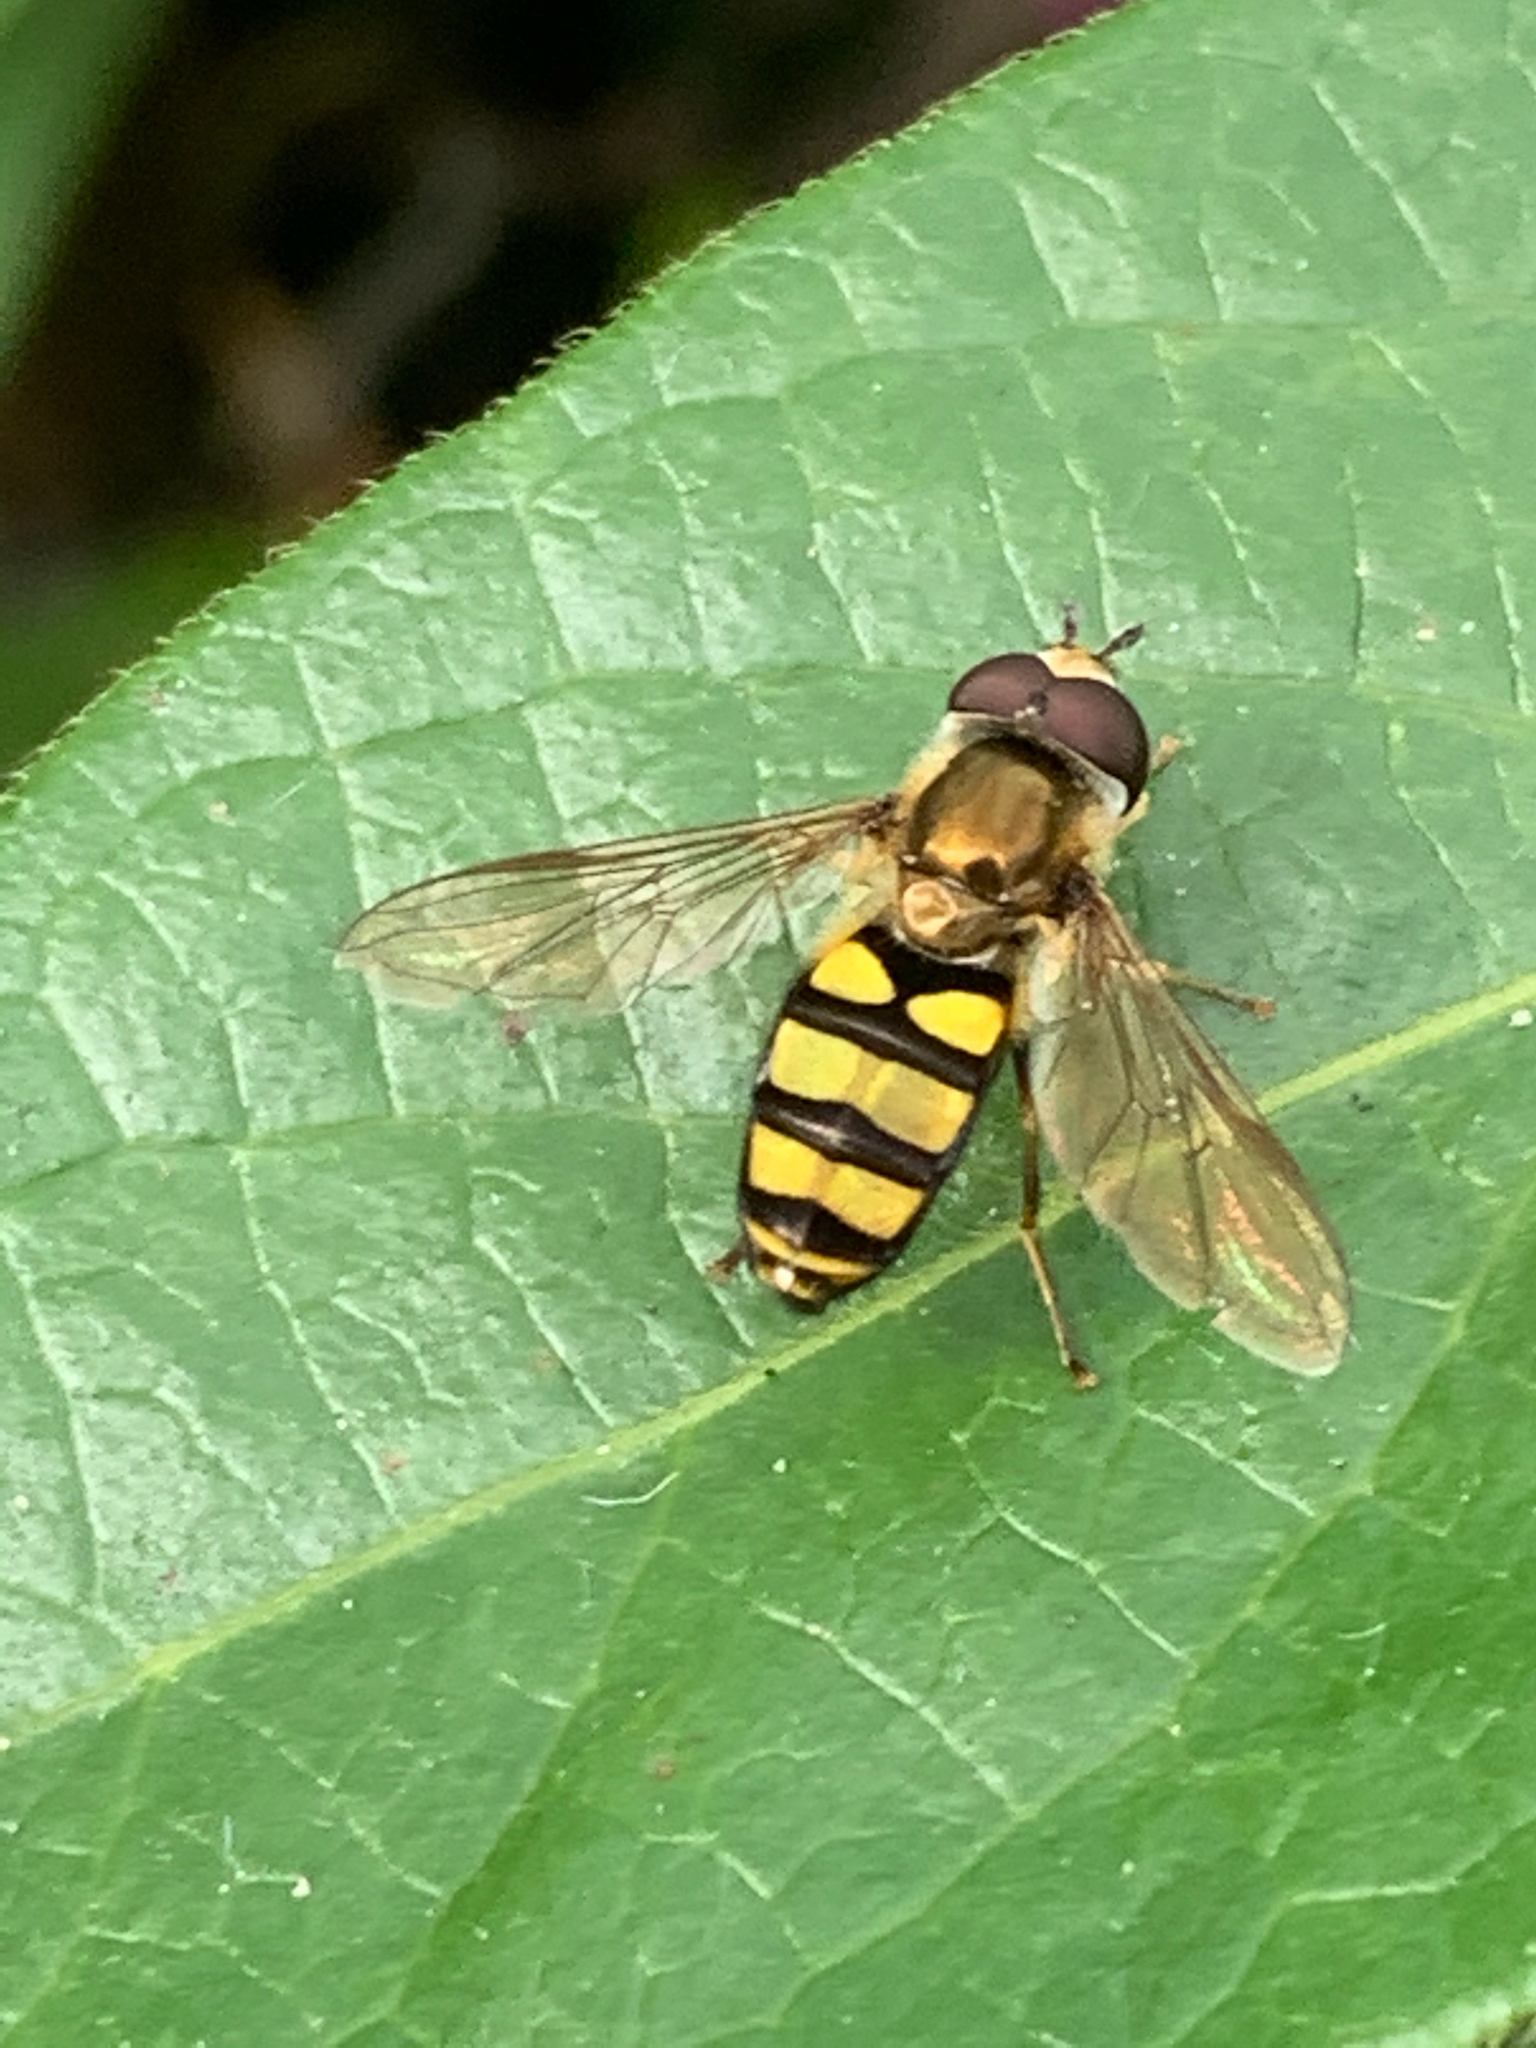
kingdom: Animalia
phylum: Arthropoda
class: Insecta
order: Diptera
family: Syrphidae
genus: Eupeodes
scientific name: Eupeodes
